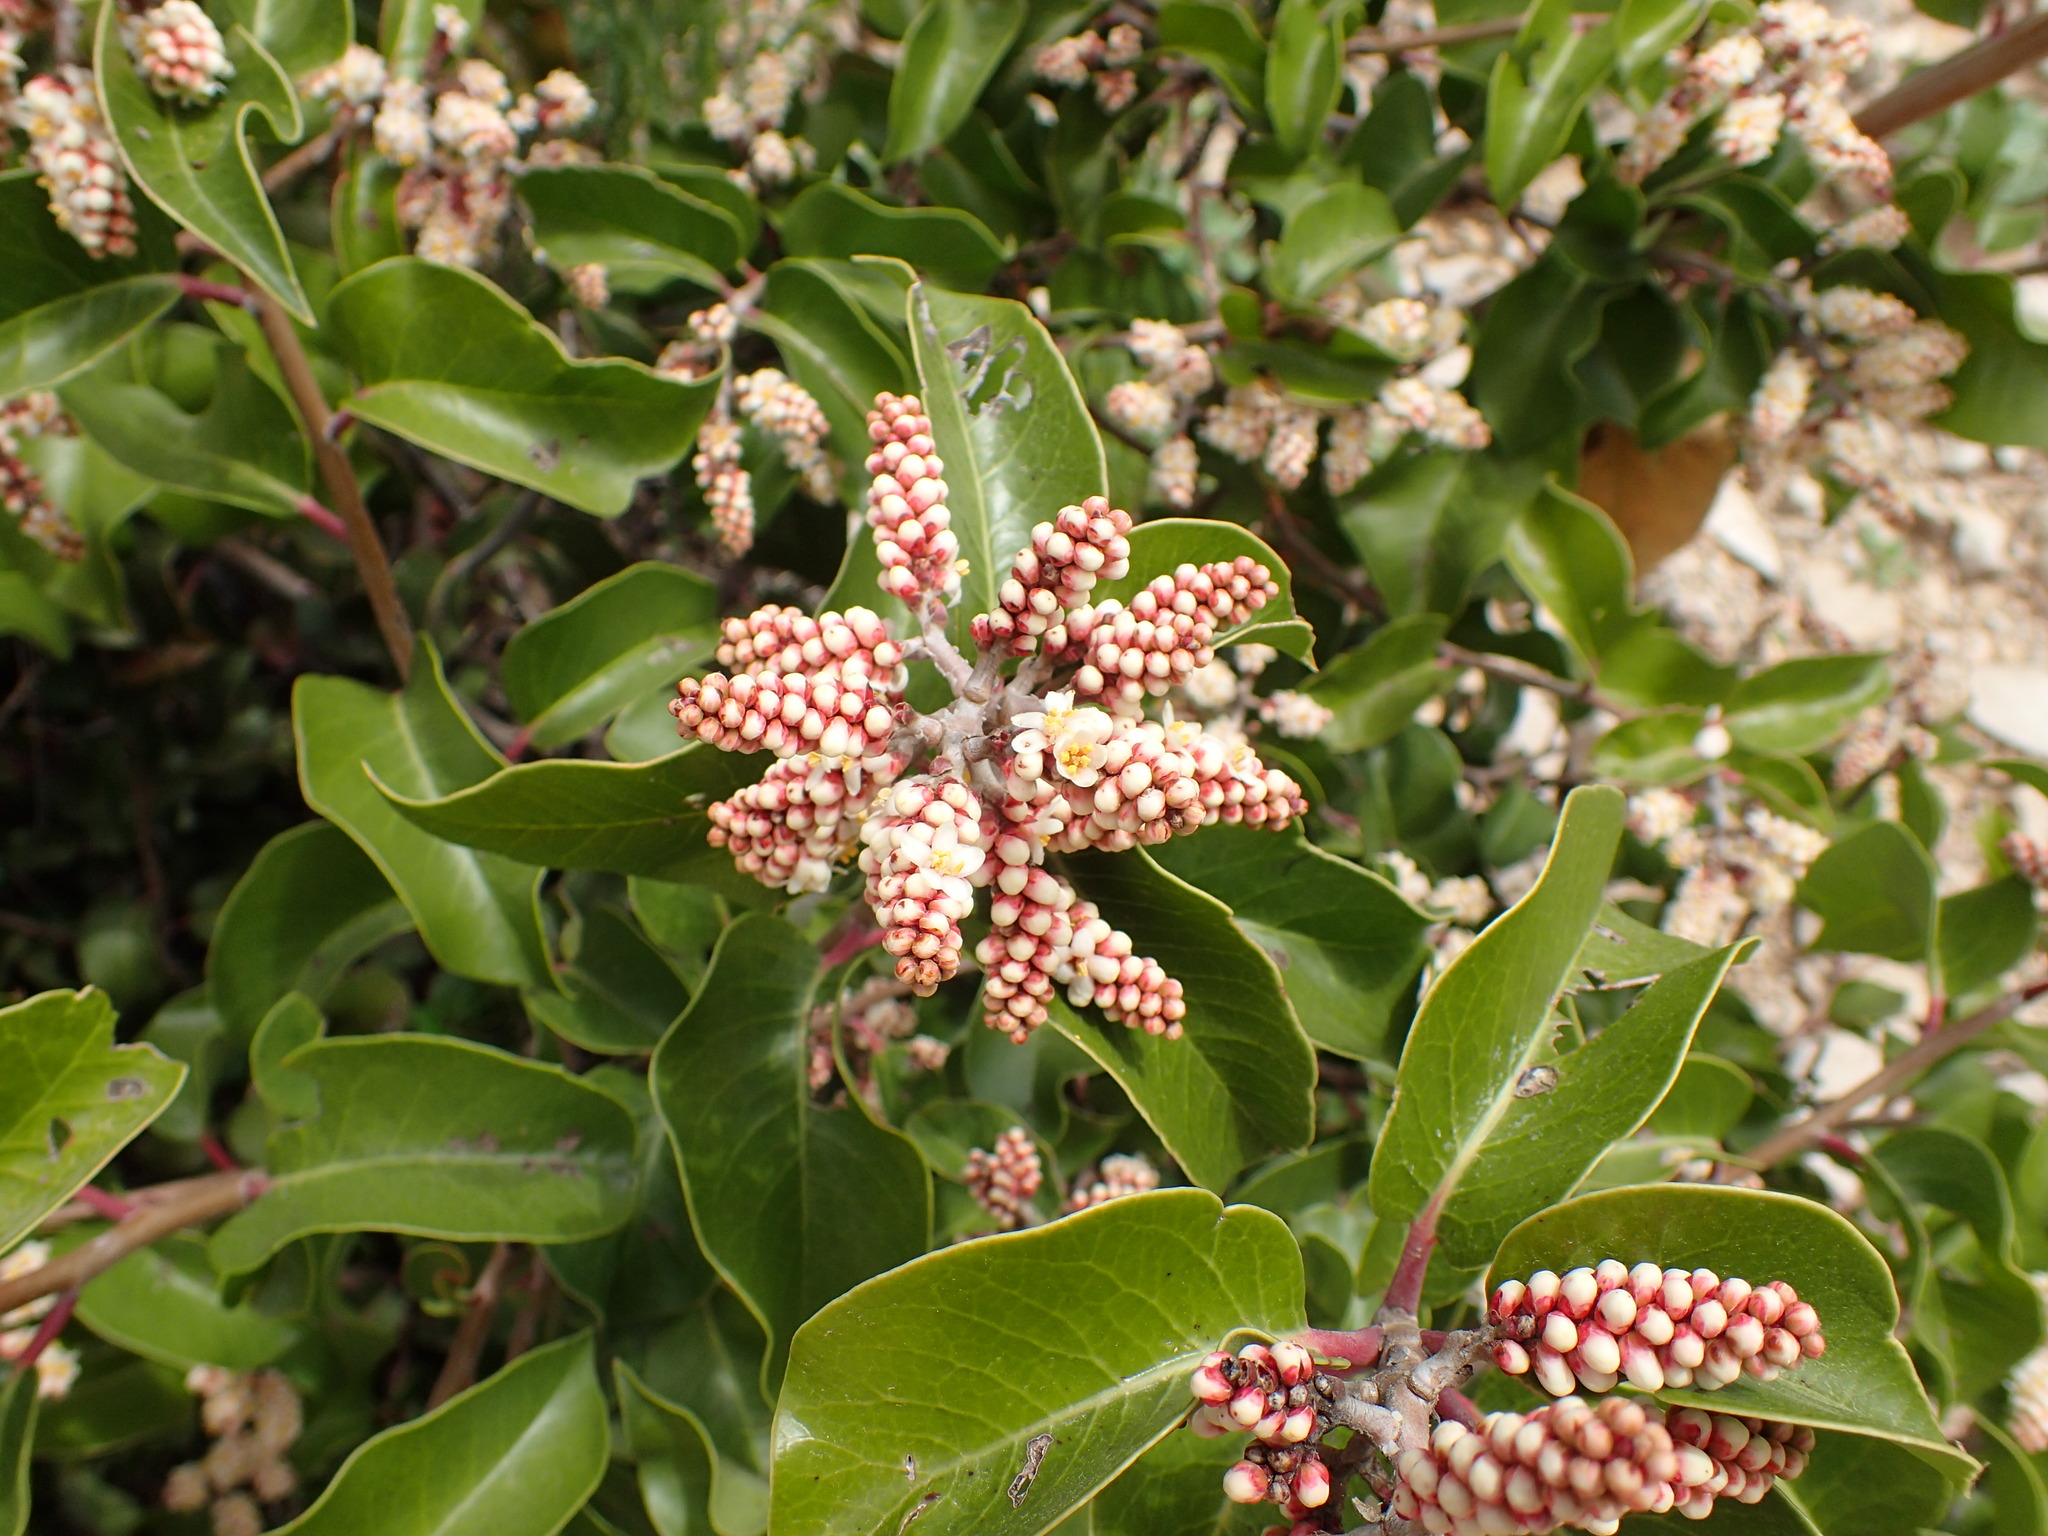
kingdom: Plantae
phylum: Tracheophyta
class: Magnoliopsida
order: Sapindales
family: Anacardiaceae
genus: Rhus
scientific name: Rhus ovata
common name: Sugar sumac
